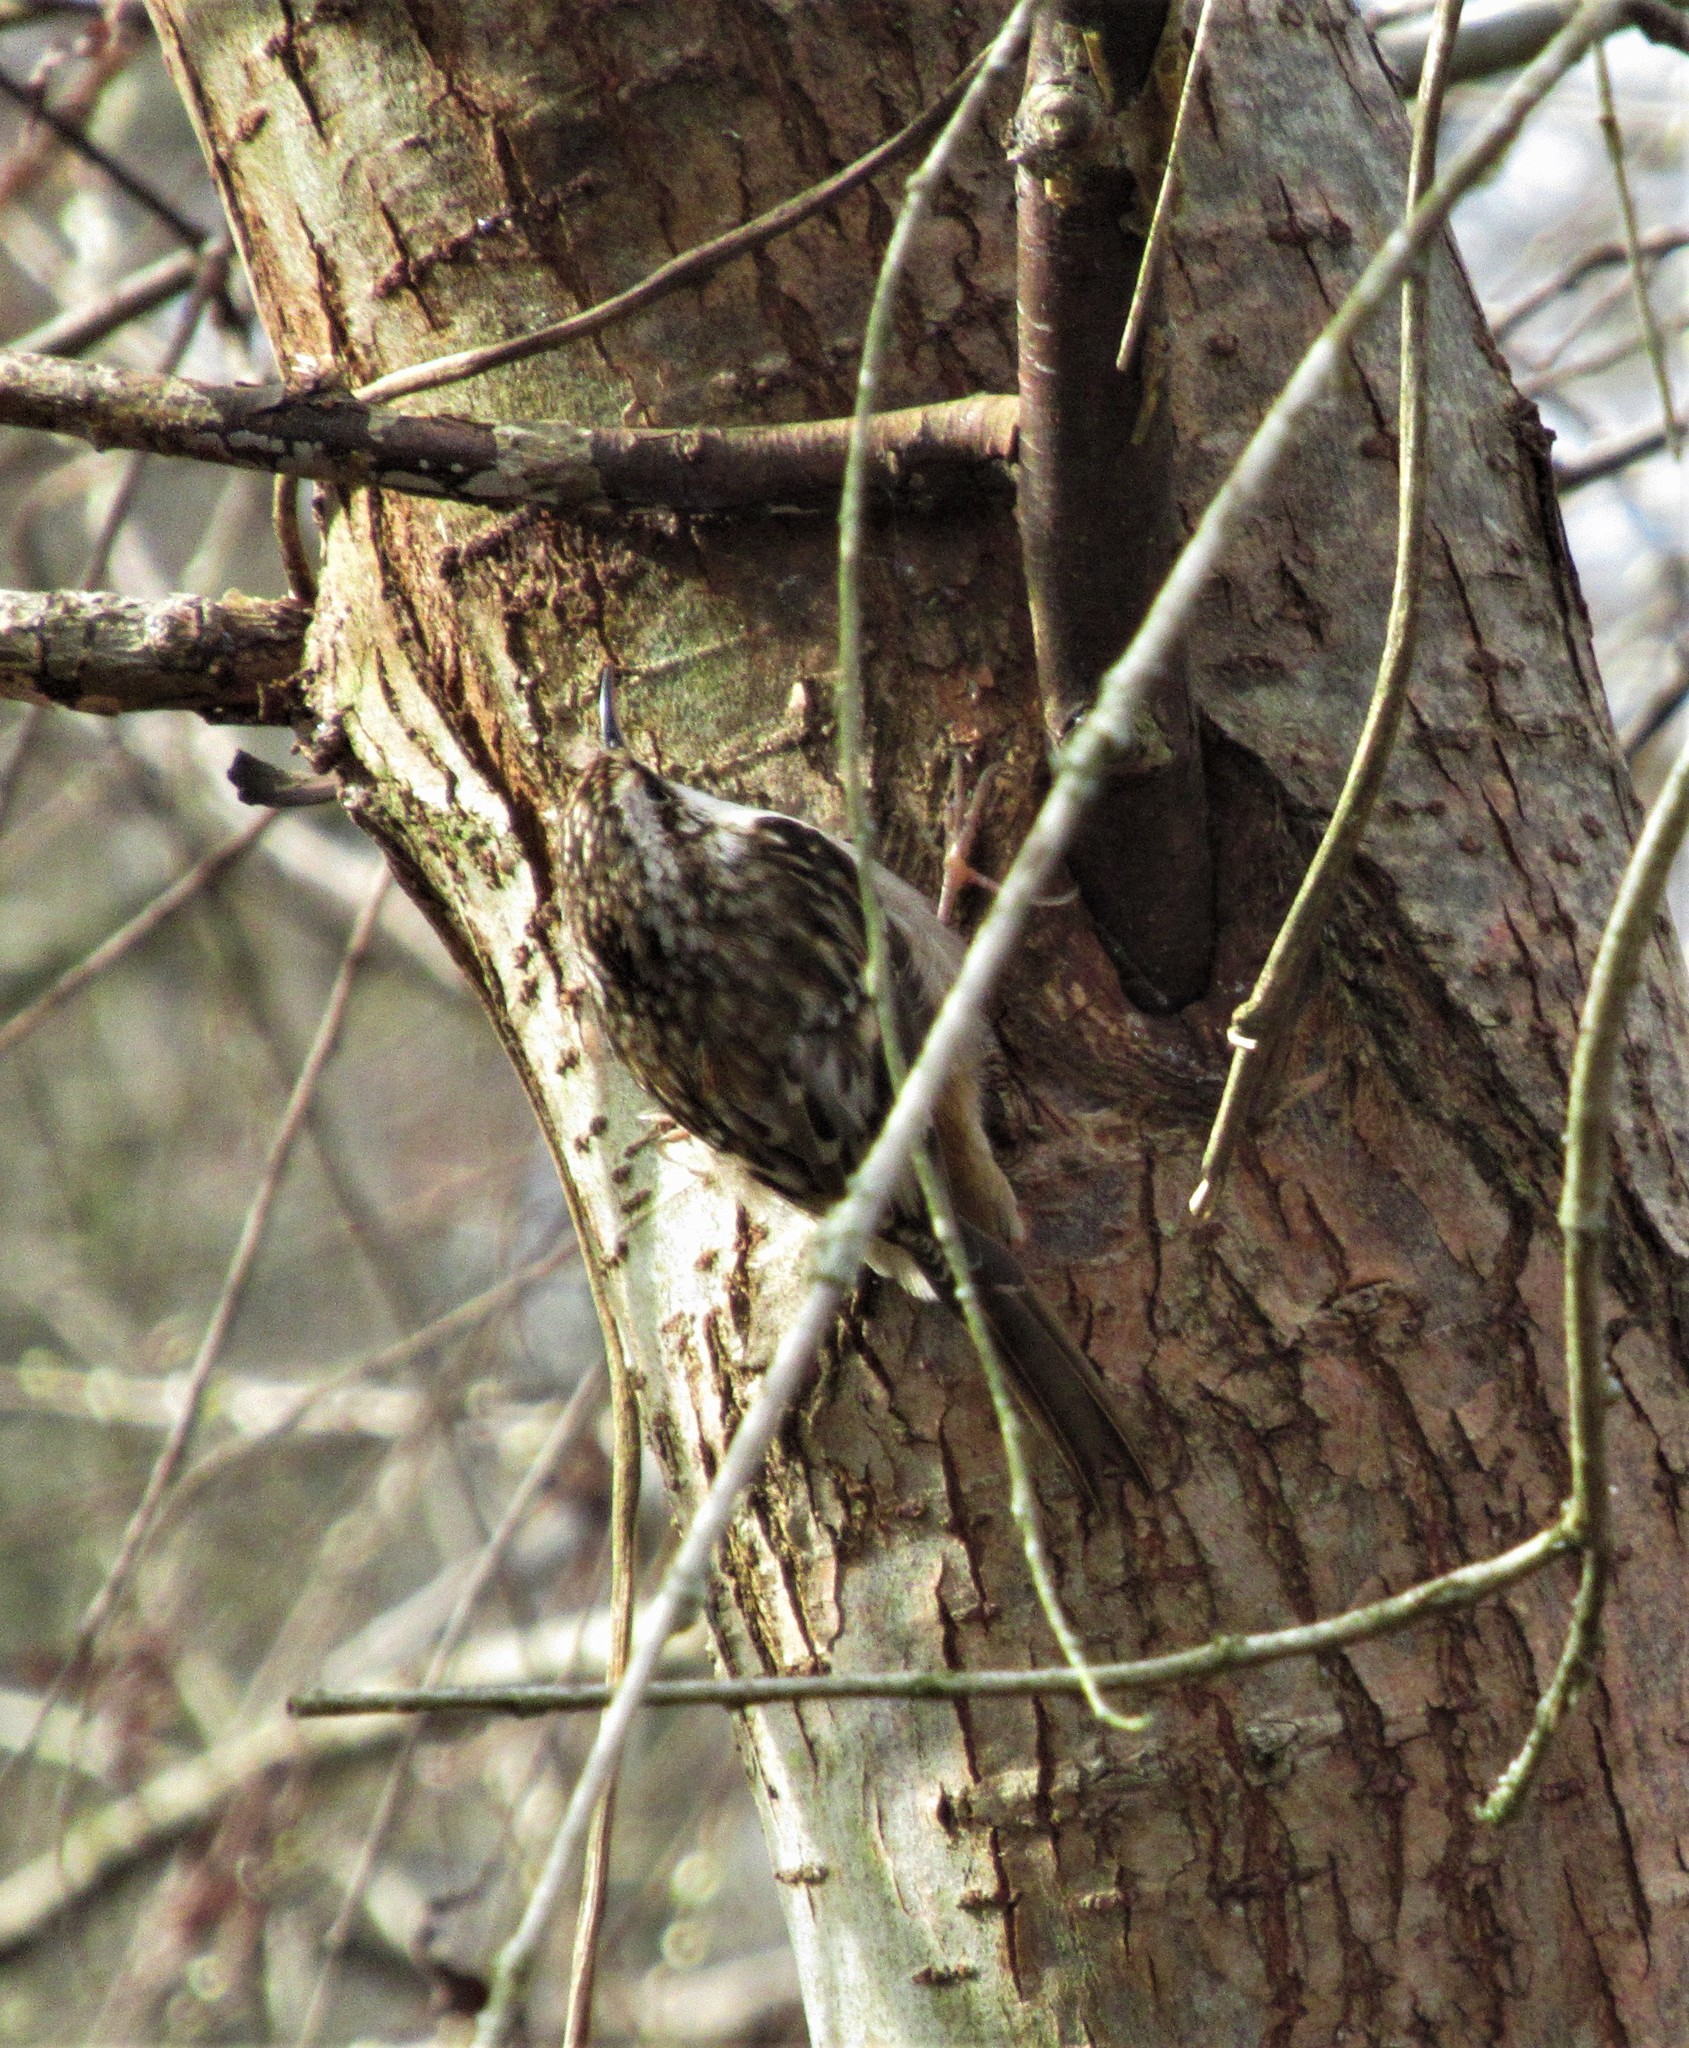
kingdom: Animalia
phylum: Chordata
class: Aves
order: Passeriformes
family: Certhiidae
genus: Certhia
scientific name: Certhia americana
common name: Brown creeper
